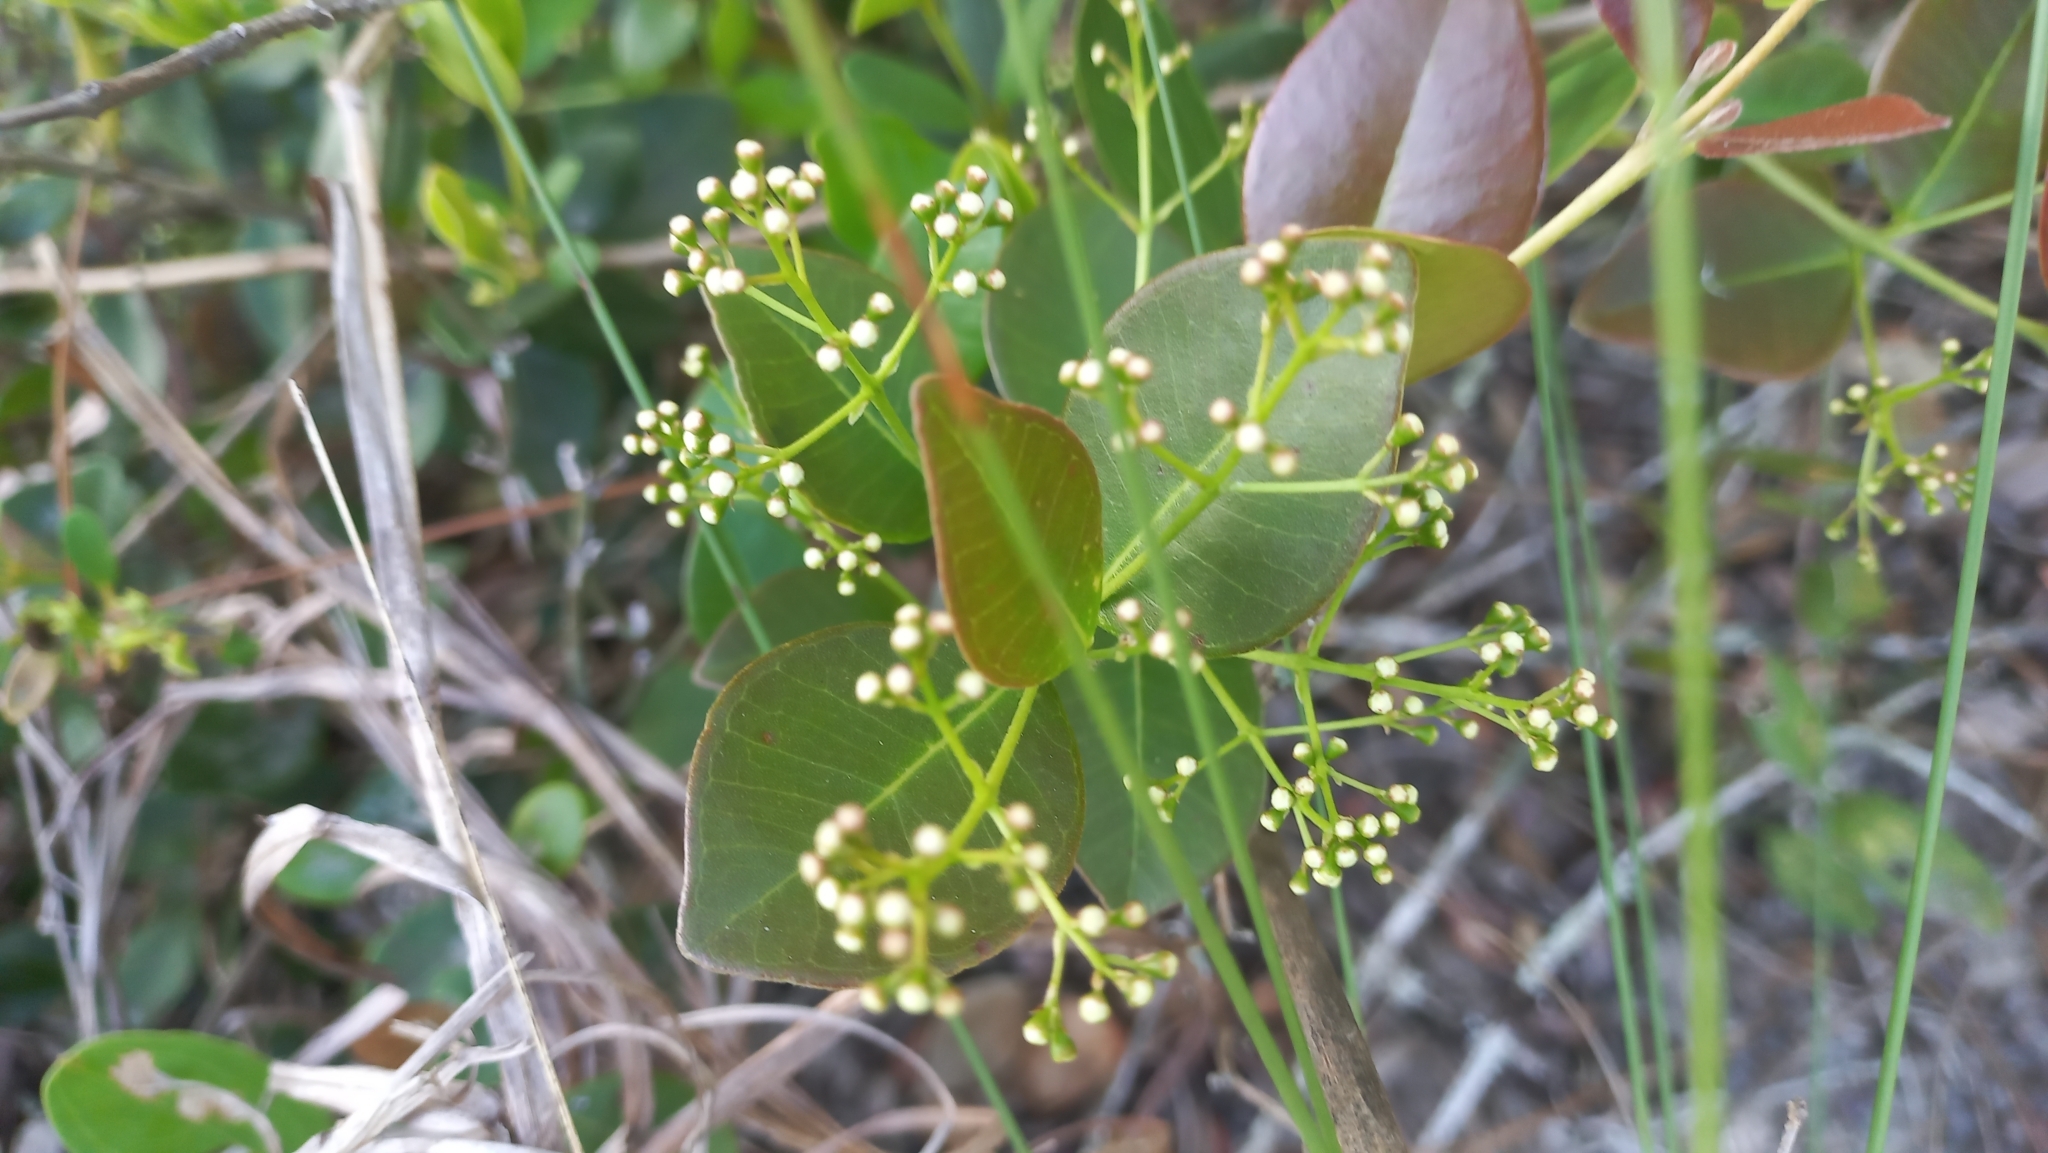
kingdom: Plantae
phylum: Tracheophyta
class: Magnoliopsida
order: Myrtales
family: Myrtaceae
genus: Myrcia
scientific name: Myrcia multiflora
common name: Pedra hume
